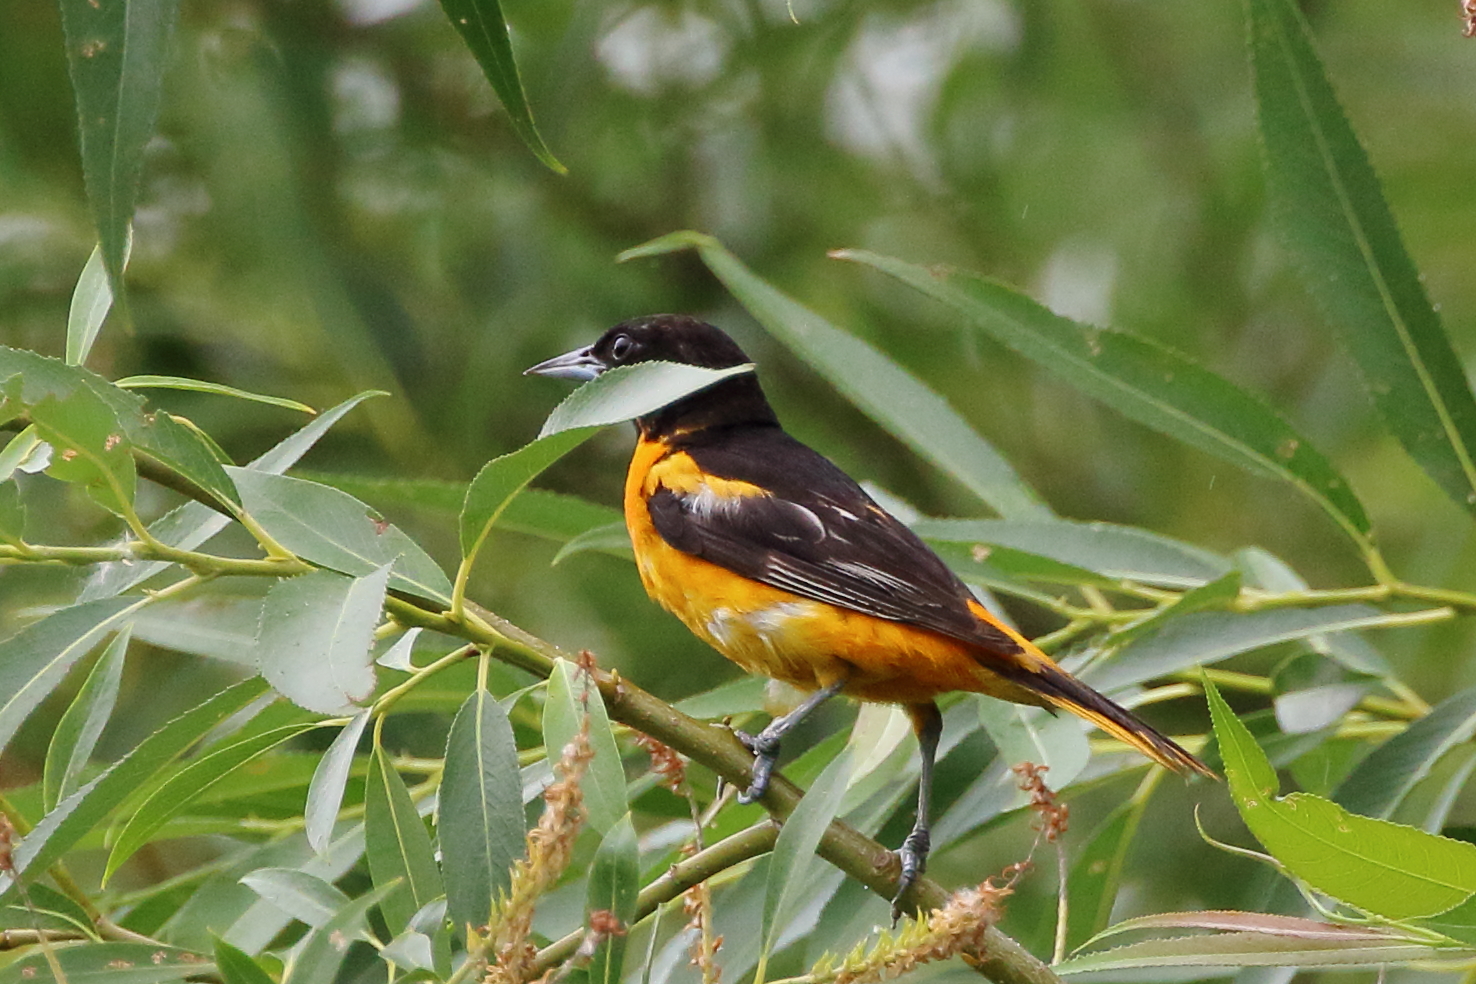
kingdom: Animalia
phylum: Chordata
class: Aves
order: Passeriformes
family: Icteridae
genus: Icterus
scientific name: Icterus galbula
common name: Baltimore oriole
